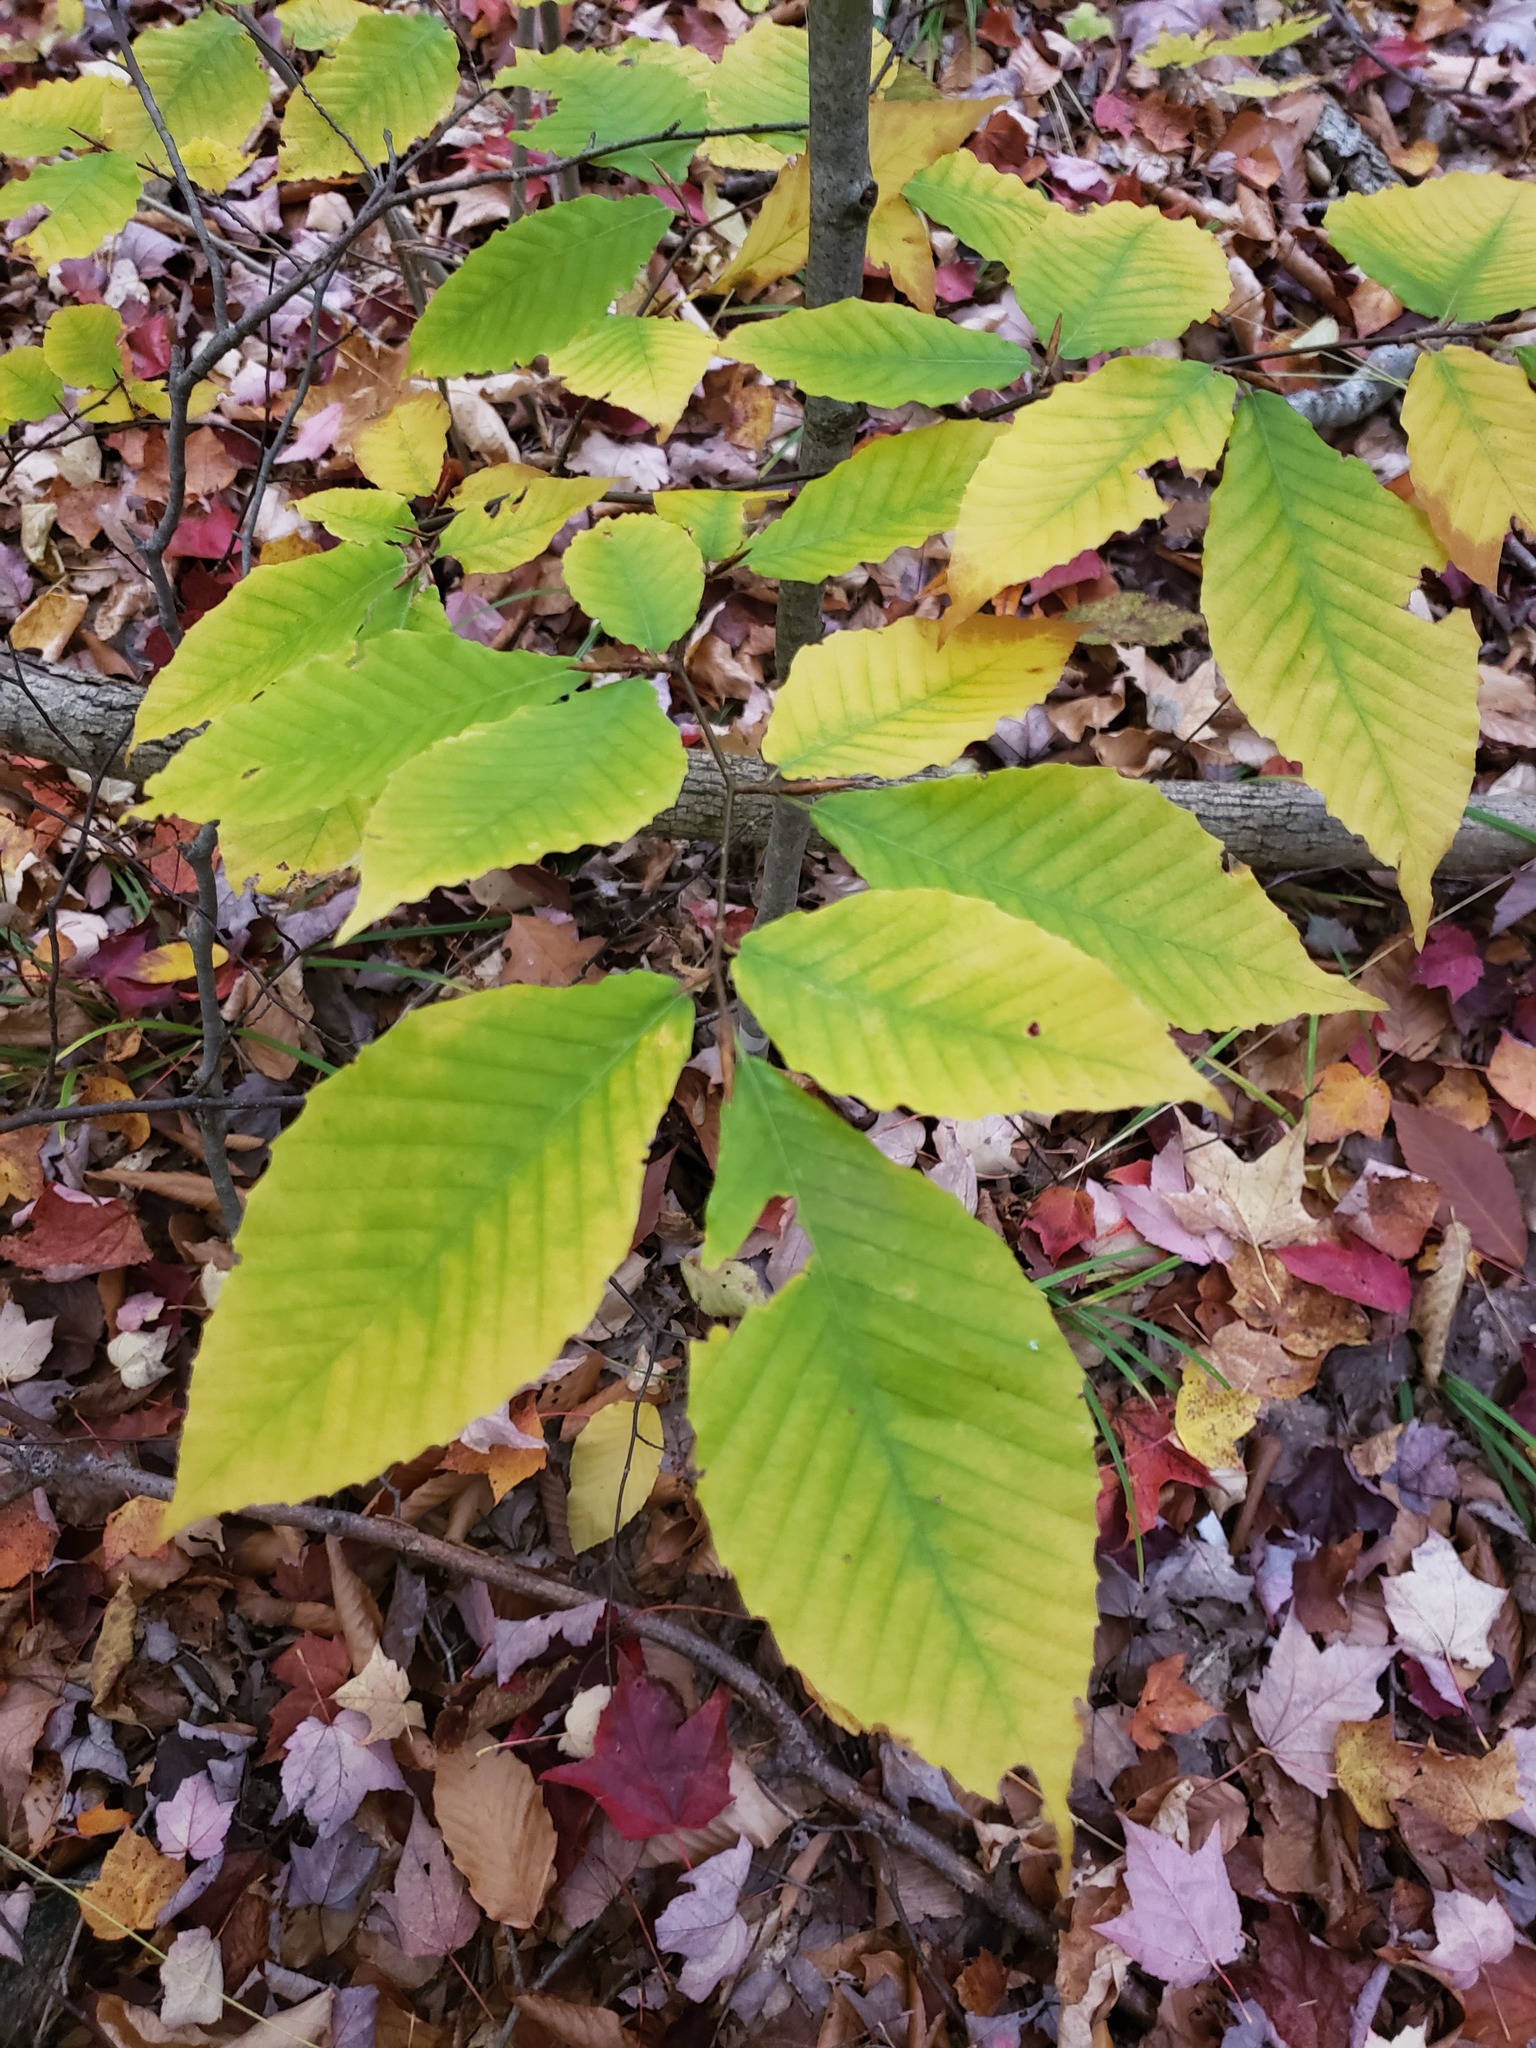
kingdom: Plantae
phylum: Tracheophyta
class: Magnoliopsida
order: Fagales
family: Fagaceae
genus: Fagus
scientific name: Fagus grandifolia
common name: American beech
